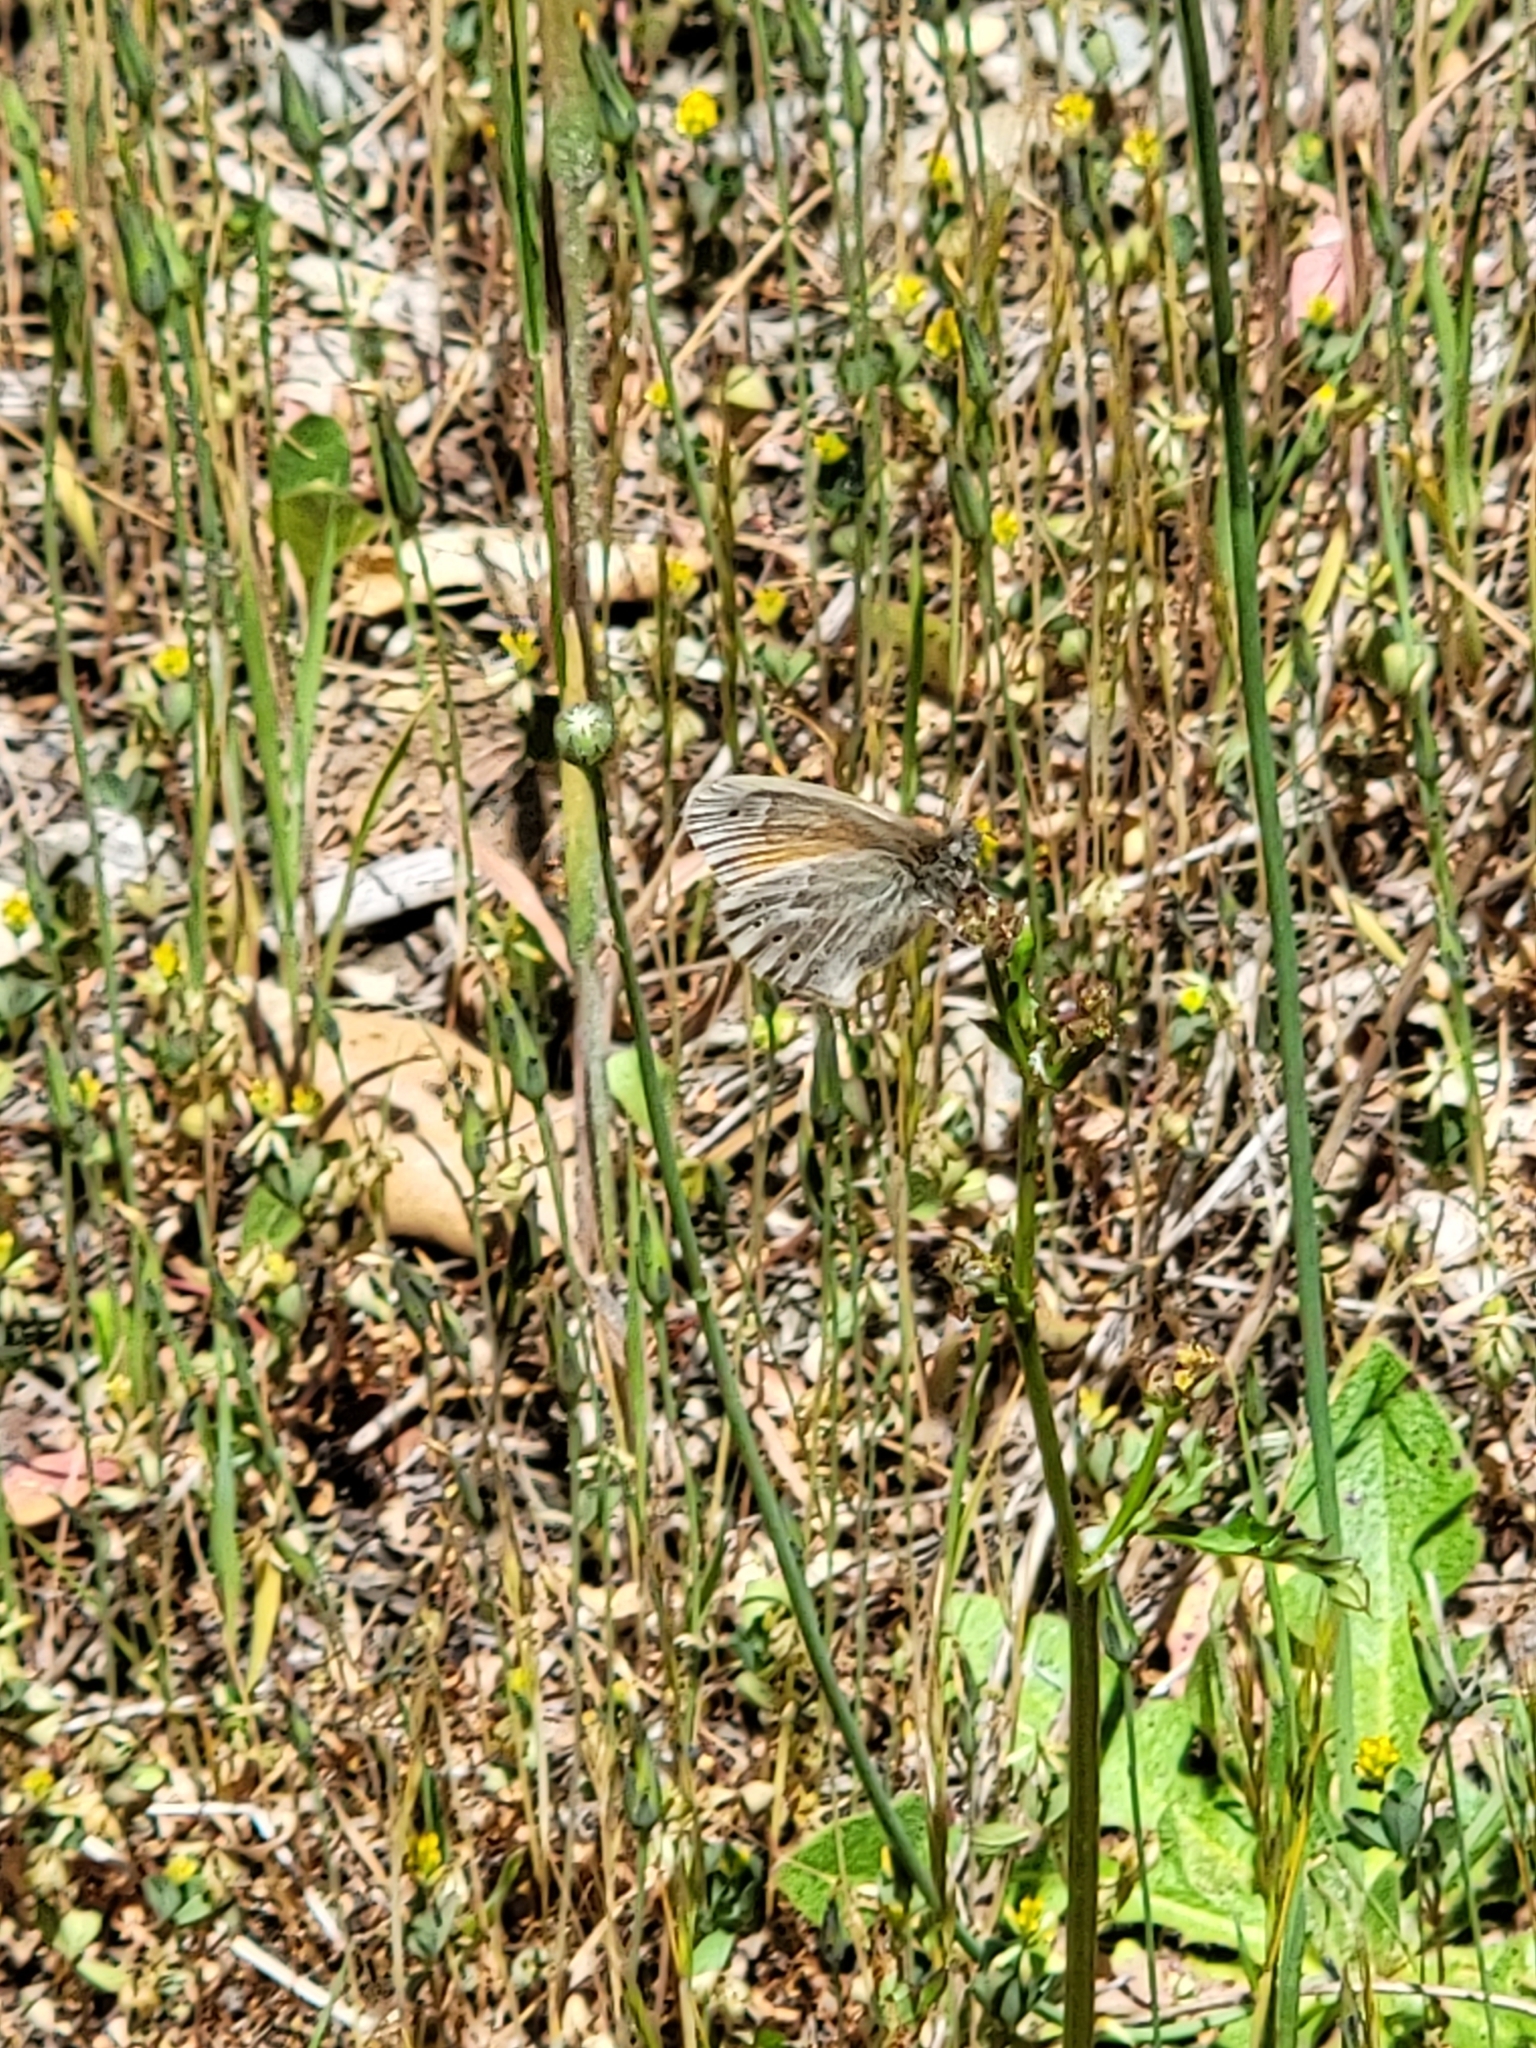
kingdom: Animalia
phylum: Arthropoda
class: Insecta
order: Lepidoptera
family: Nymphalidae
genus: Coenonympha
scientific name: Coenonympha california
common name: Common ringlet
